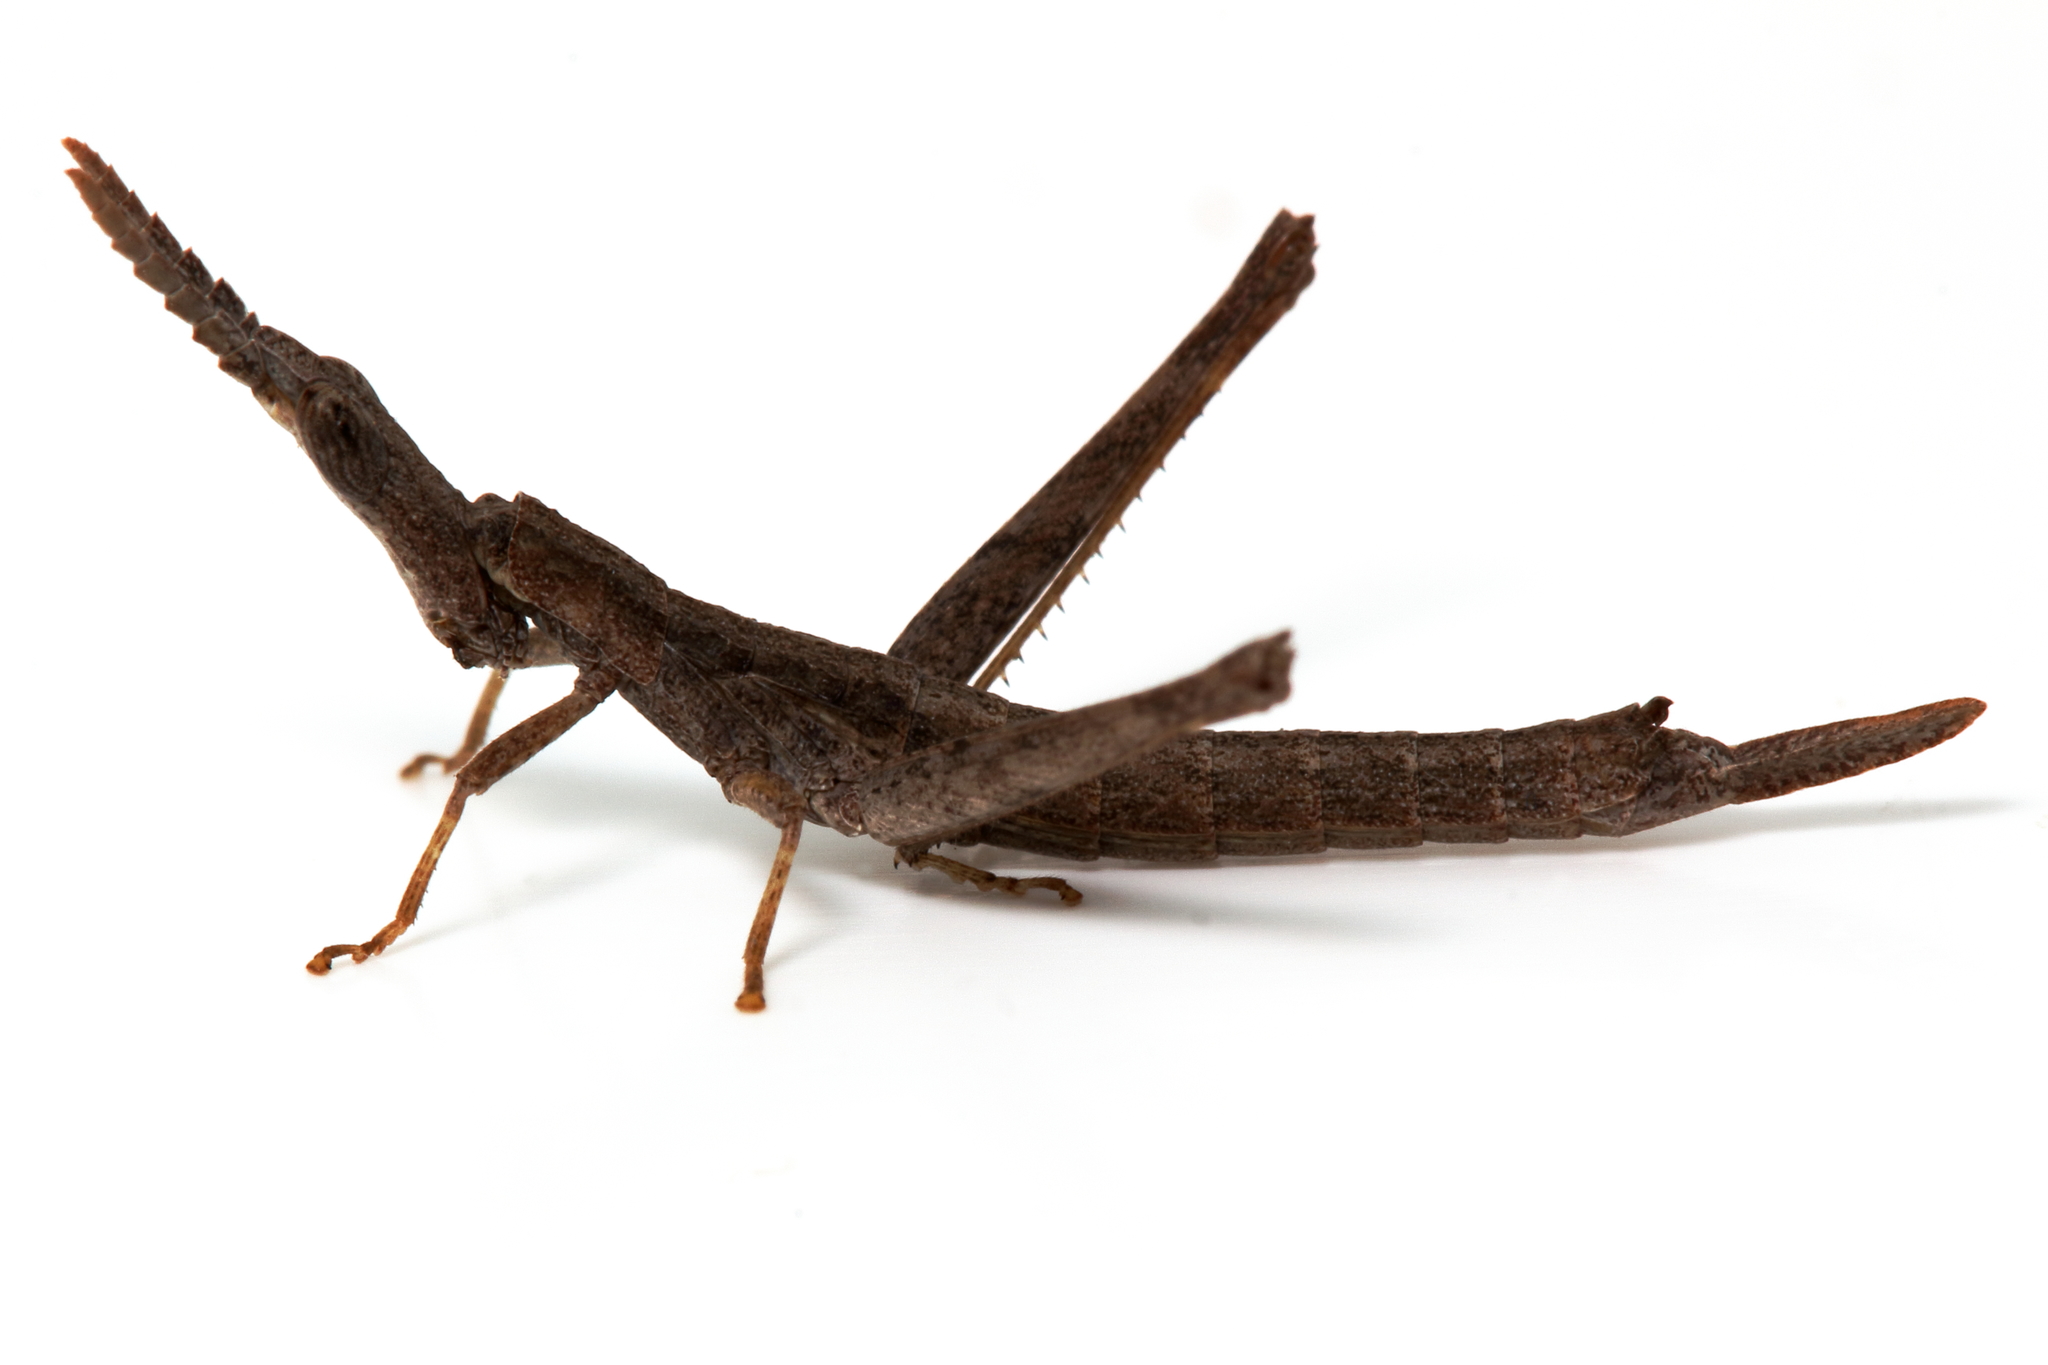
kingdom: Animalia
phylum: Arthropoda
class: Insecta
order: Orthoptera
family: Morabidae
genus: Vandiemenella
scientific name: Vandiemenella viatica
